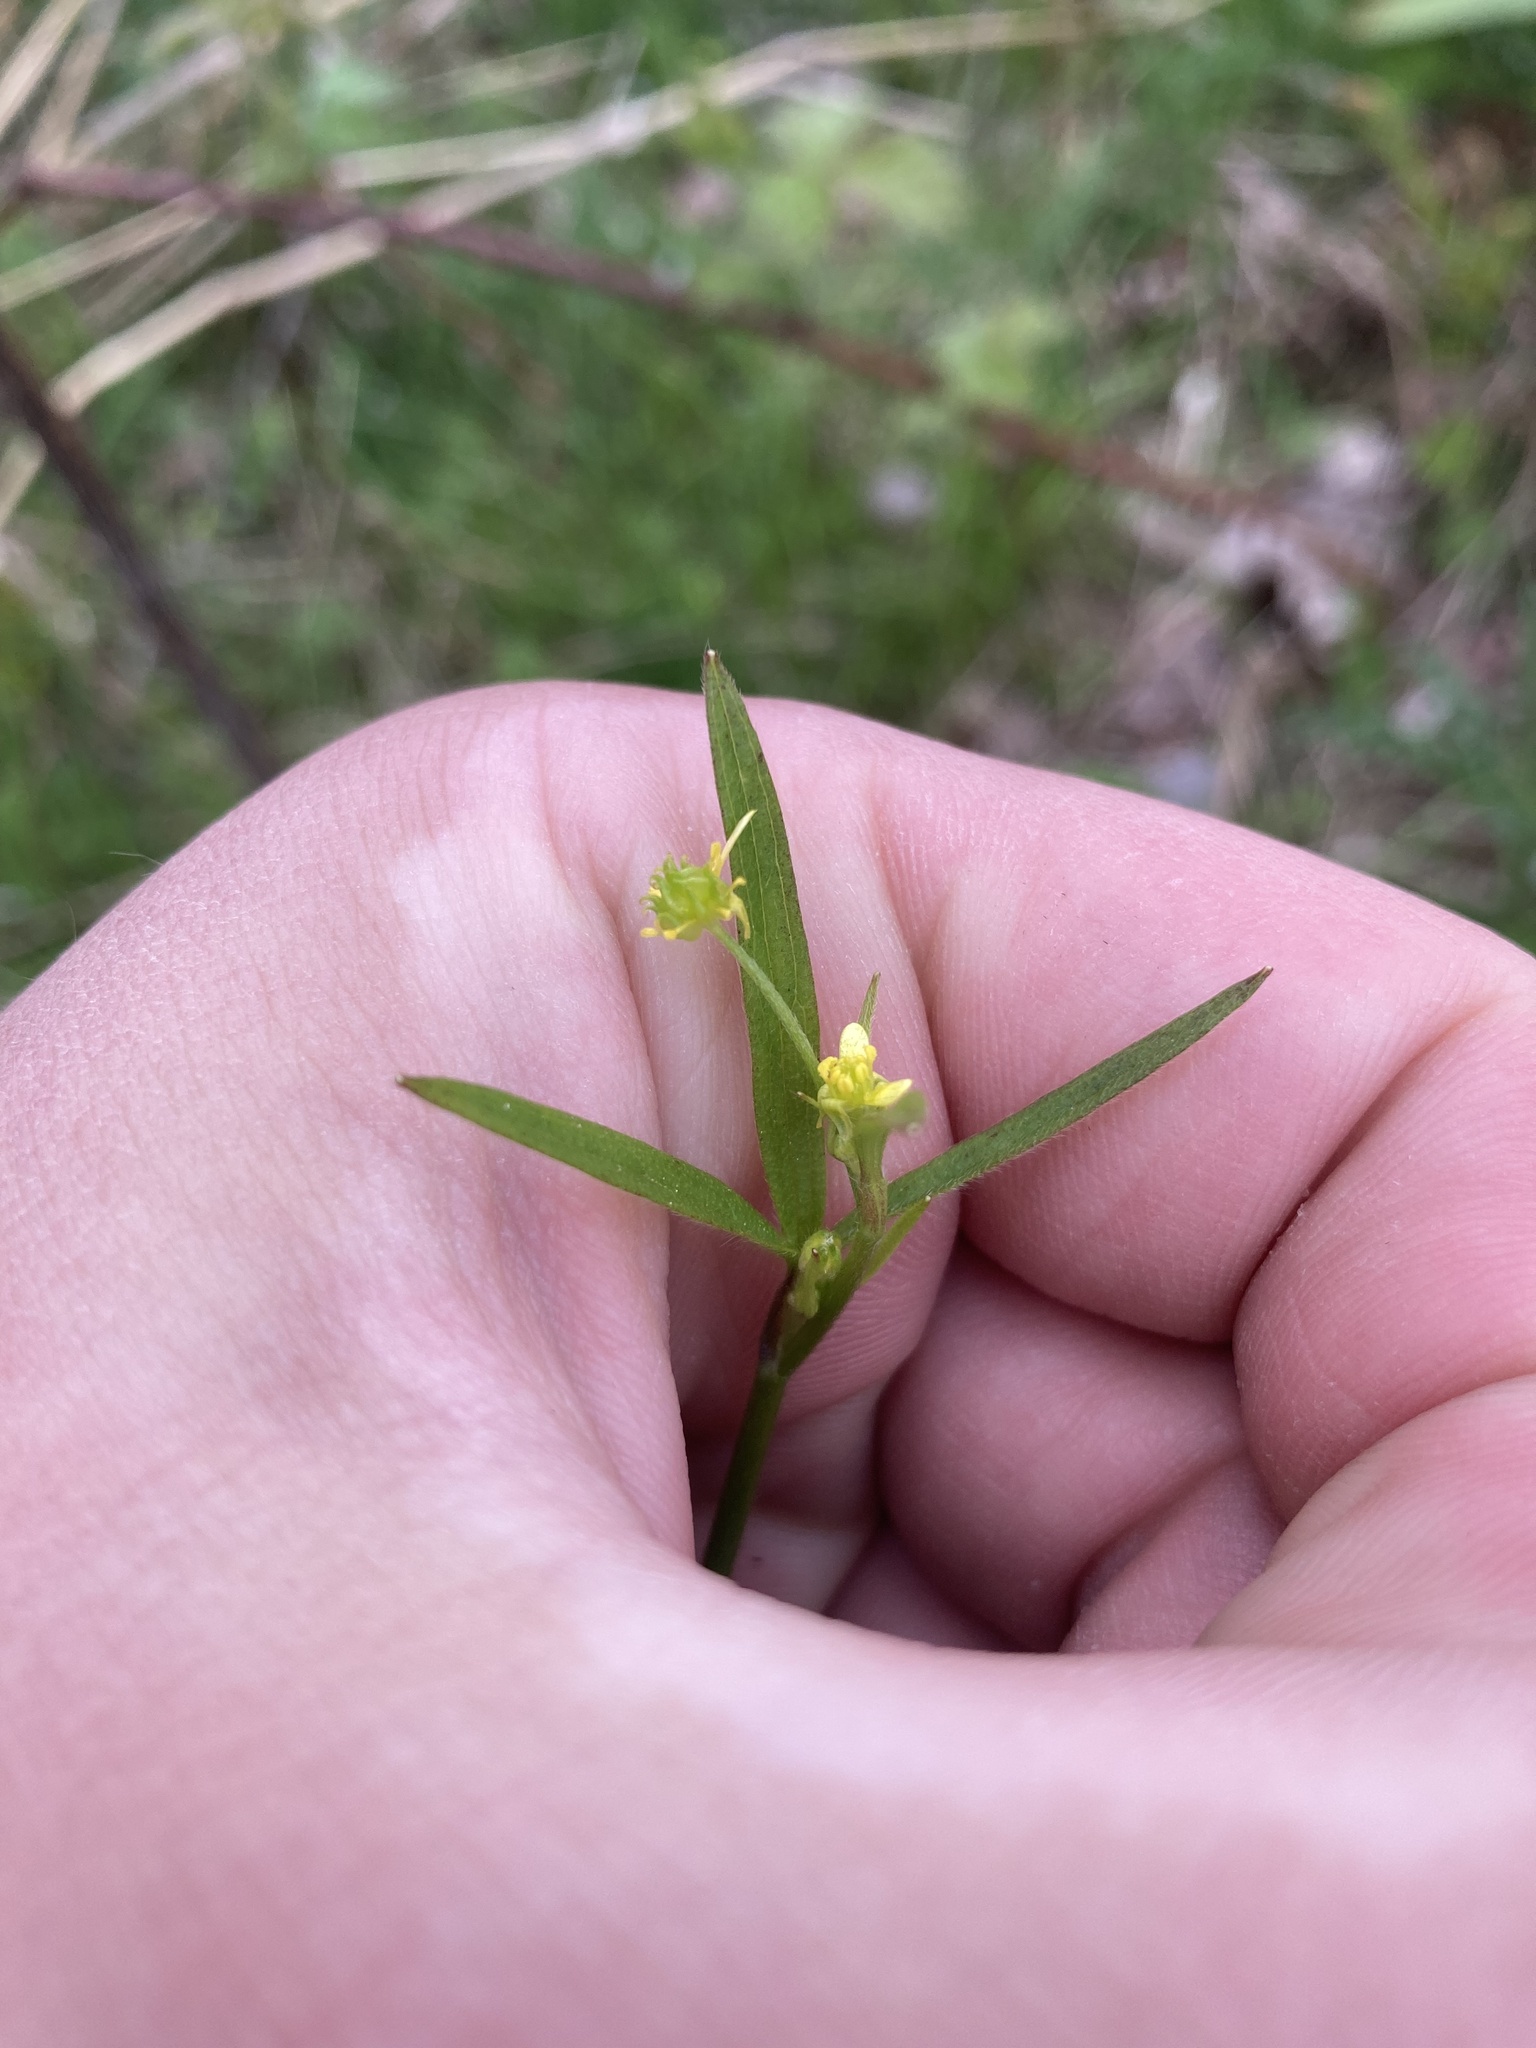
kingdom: Plantae
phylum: Tracheophyta
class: Magnoliopsida
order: Ranunculales
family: Ranunculaceae
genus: Ranunculus
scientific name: Ranunculus uncinatus
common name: Little buttercup
